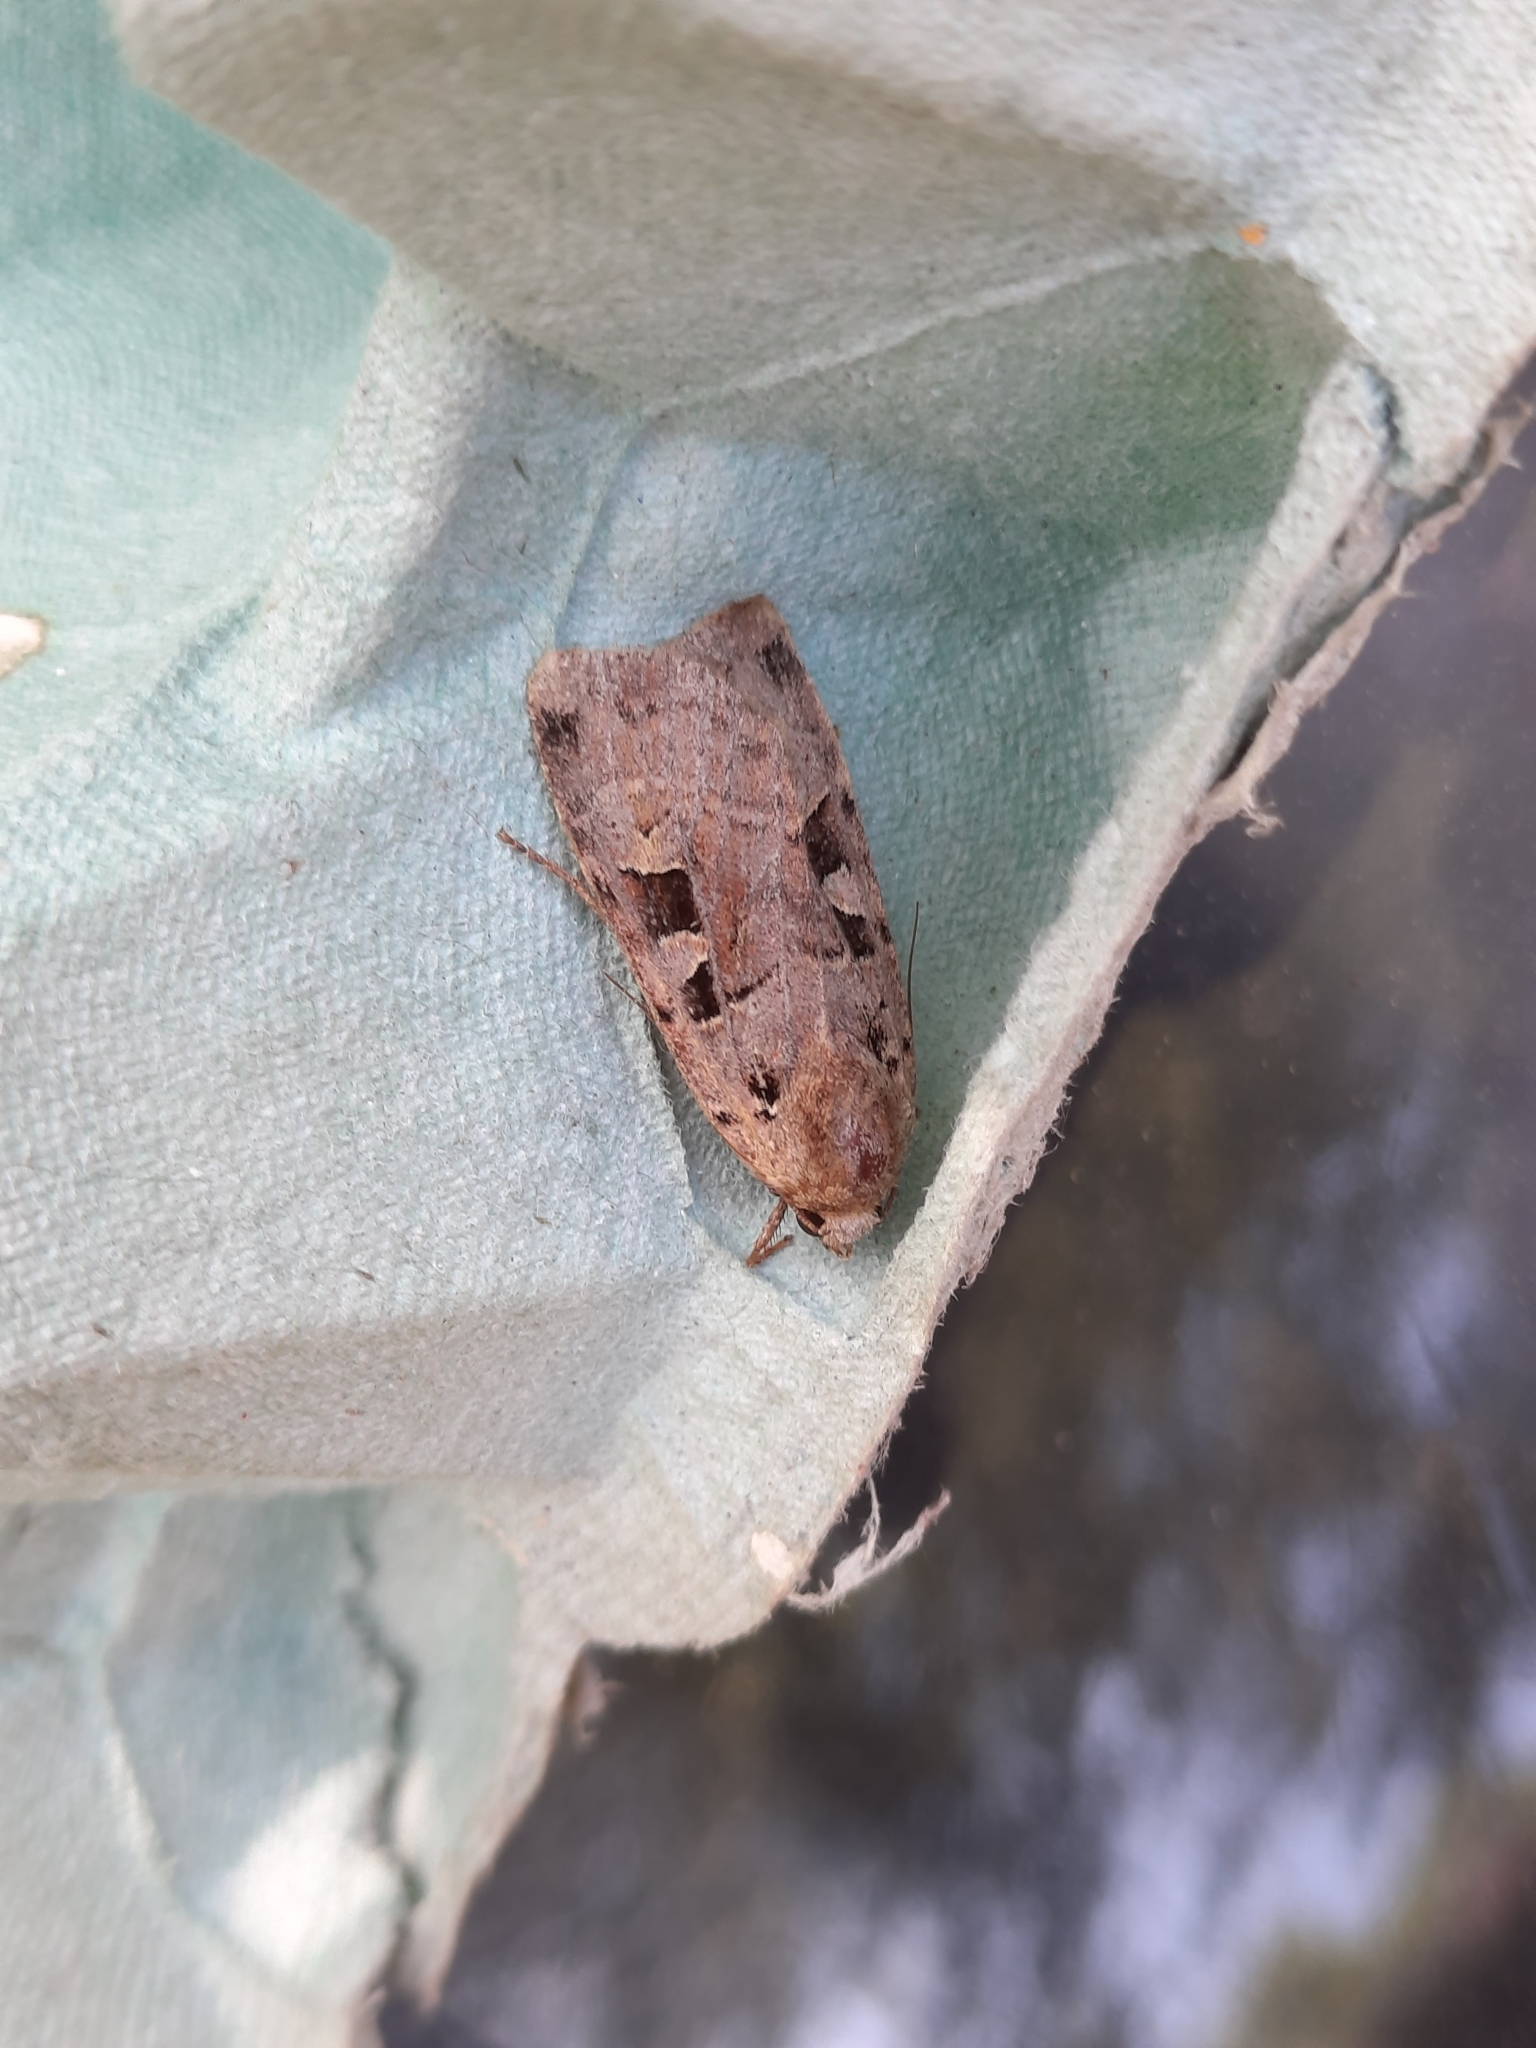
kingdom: Animalia
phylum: Arthropoda
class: Insecta
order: Lepidoptera
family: Noctuidae
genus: Xestia
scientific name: Xestia triangulum
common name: Double square-spot
